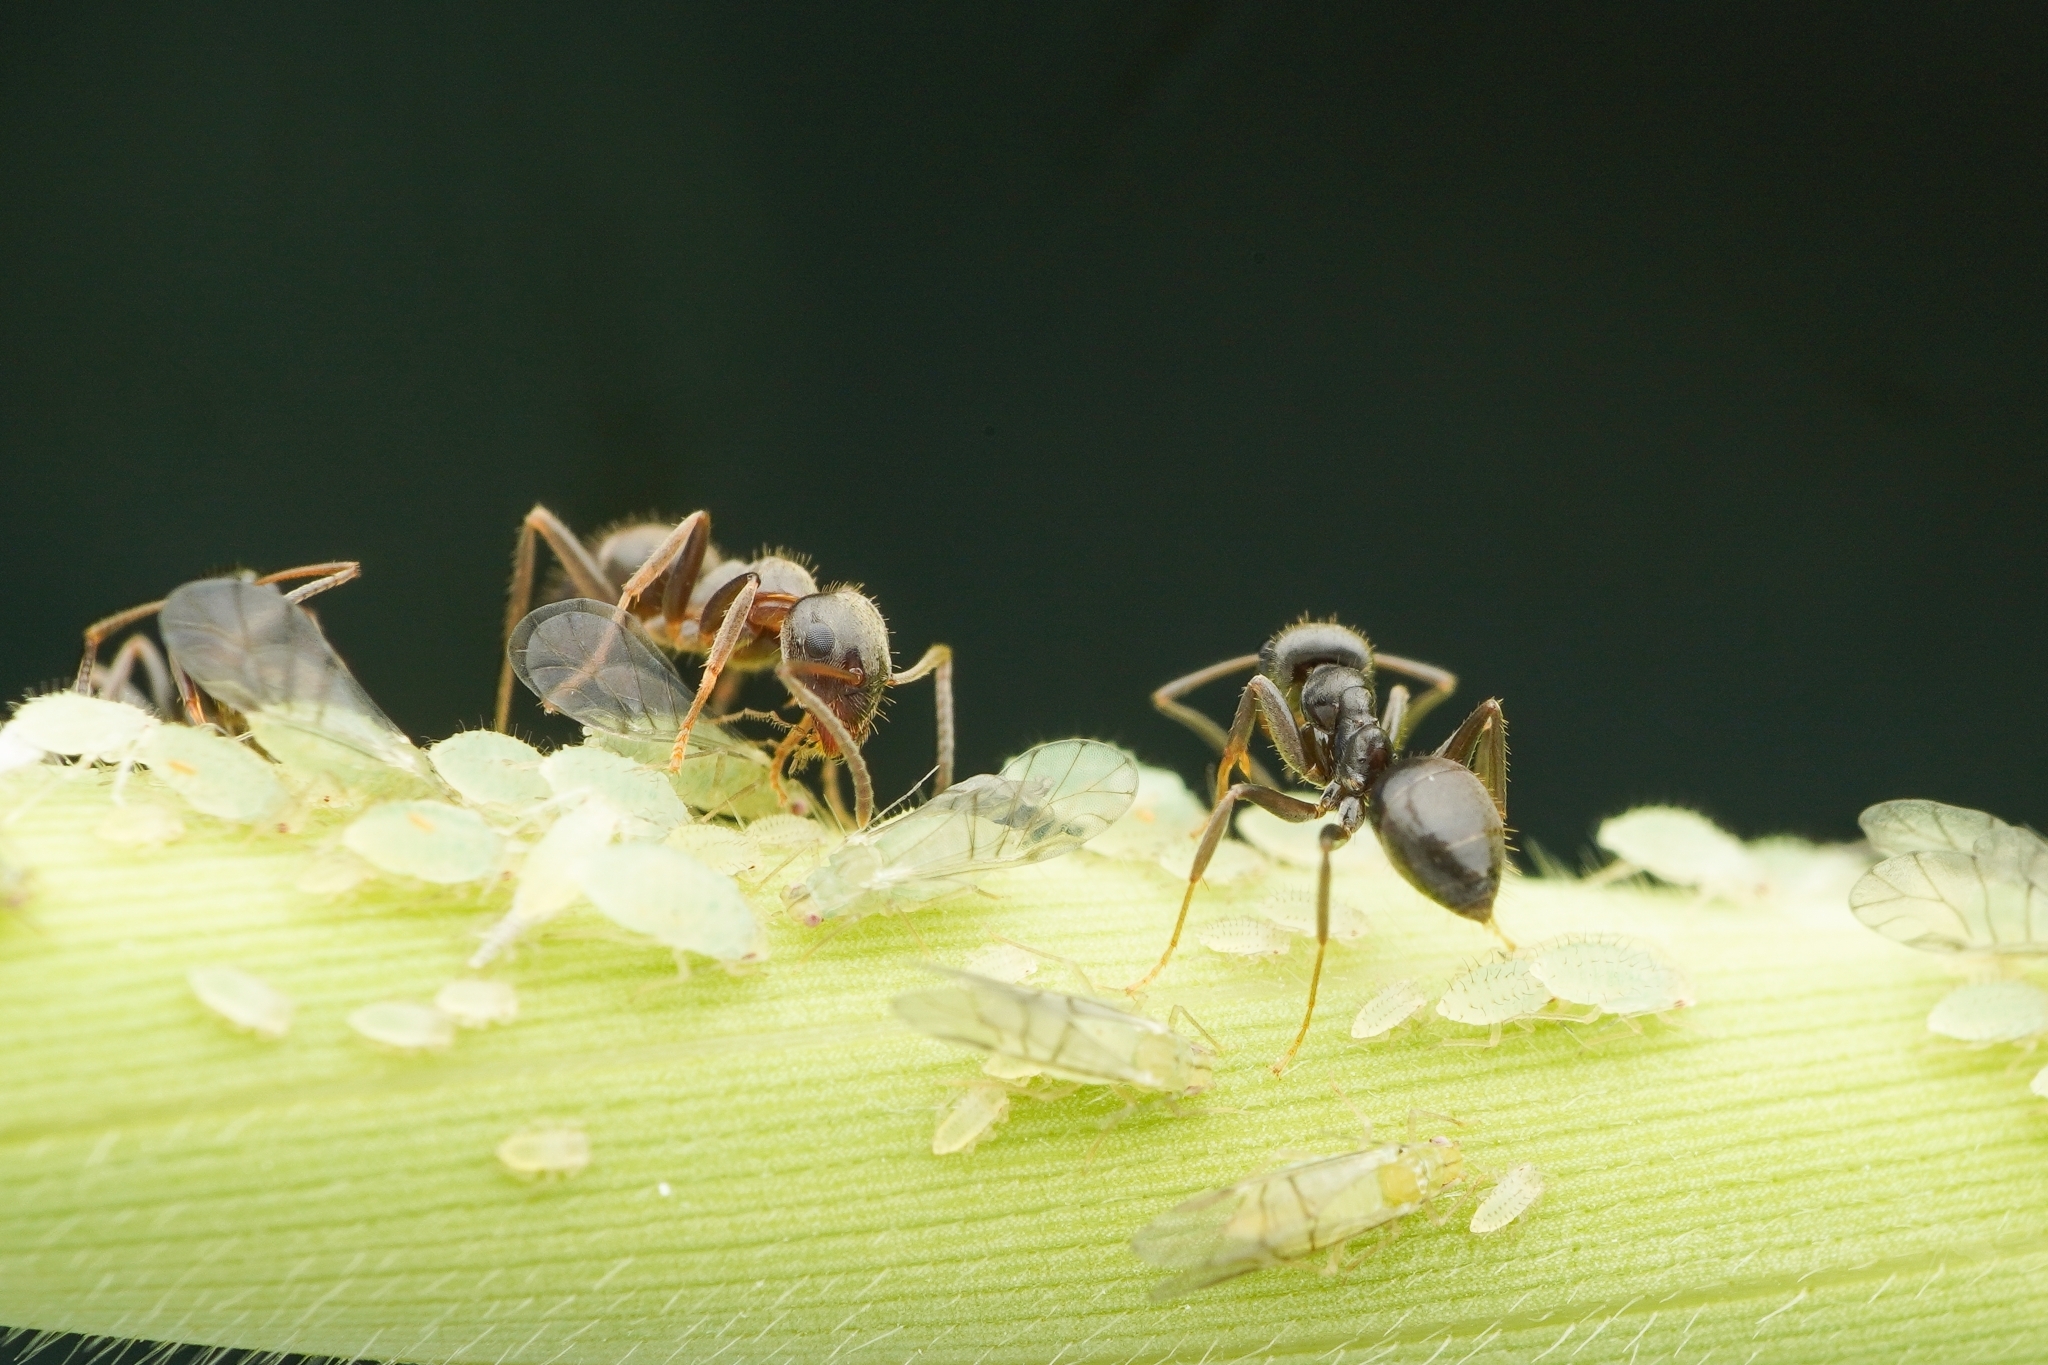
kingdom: Animalia
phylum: Arthropoda
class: Insecta
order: Hymenoptera
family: Formicidae
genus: Lasius
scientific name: Lasius japonicus
